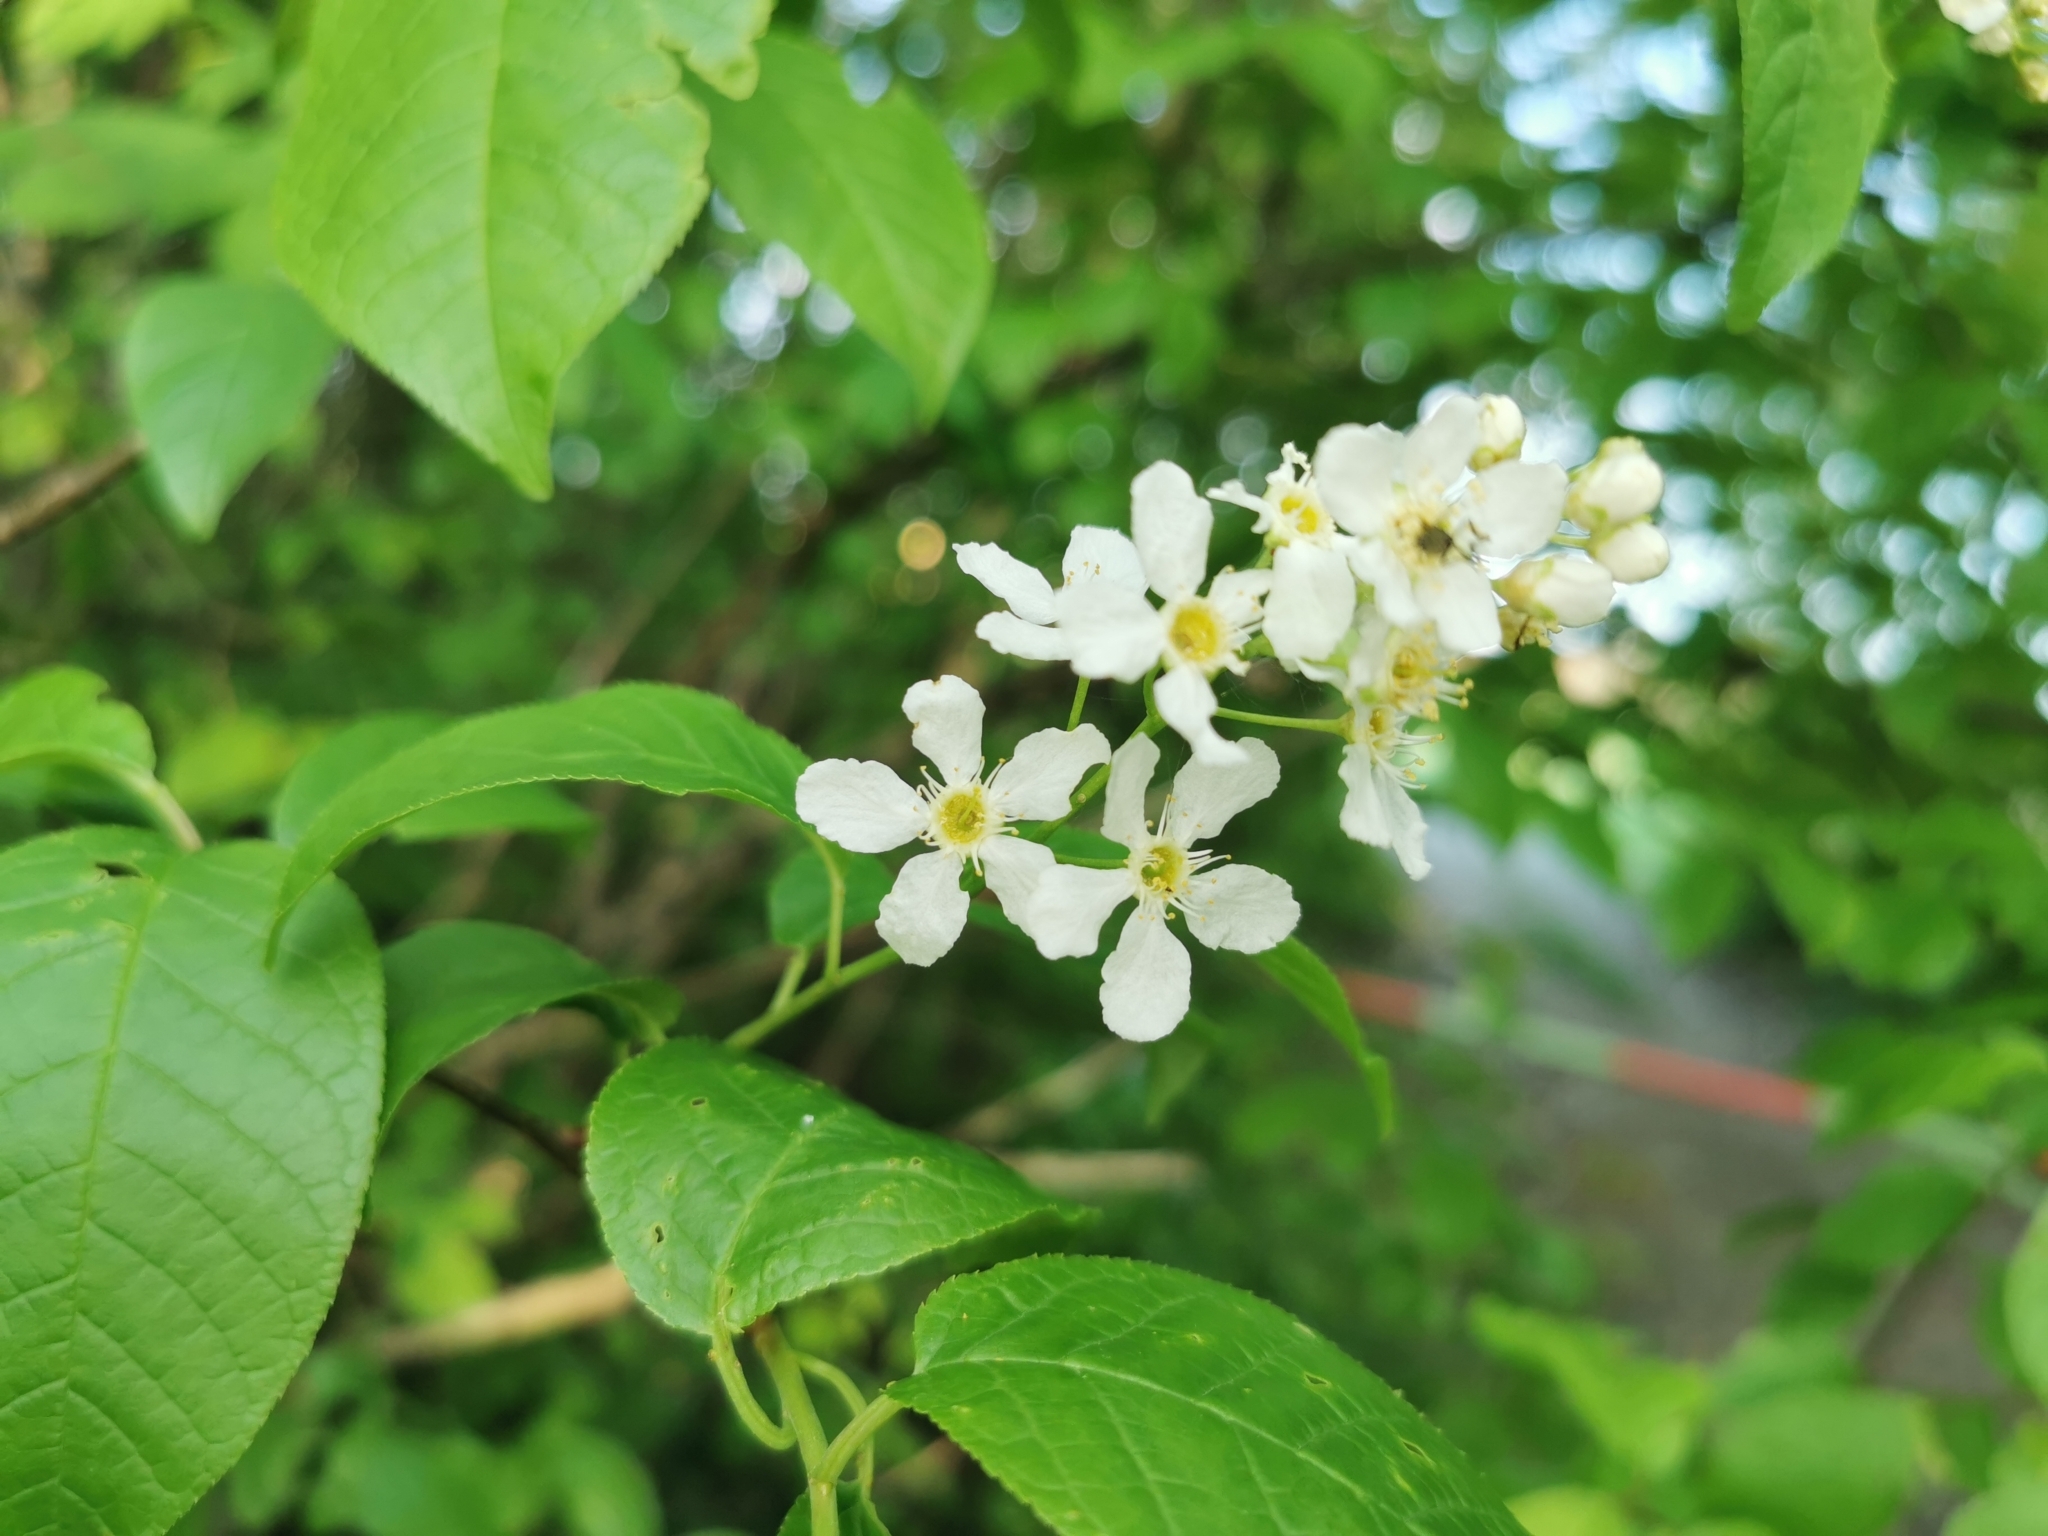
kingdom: Plantae
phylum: Tracheophyta
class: Magnoliopsida
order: Rosales
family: Rosaceae
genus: Prunus
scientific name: Prunus padus
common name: Bird cherry
